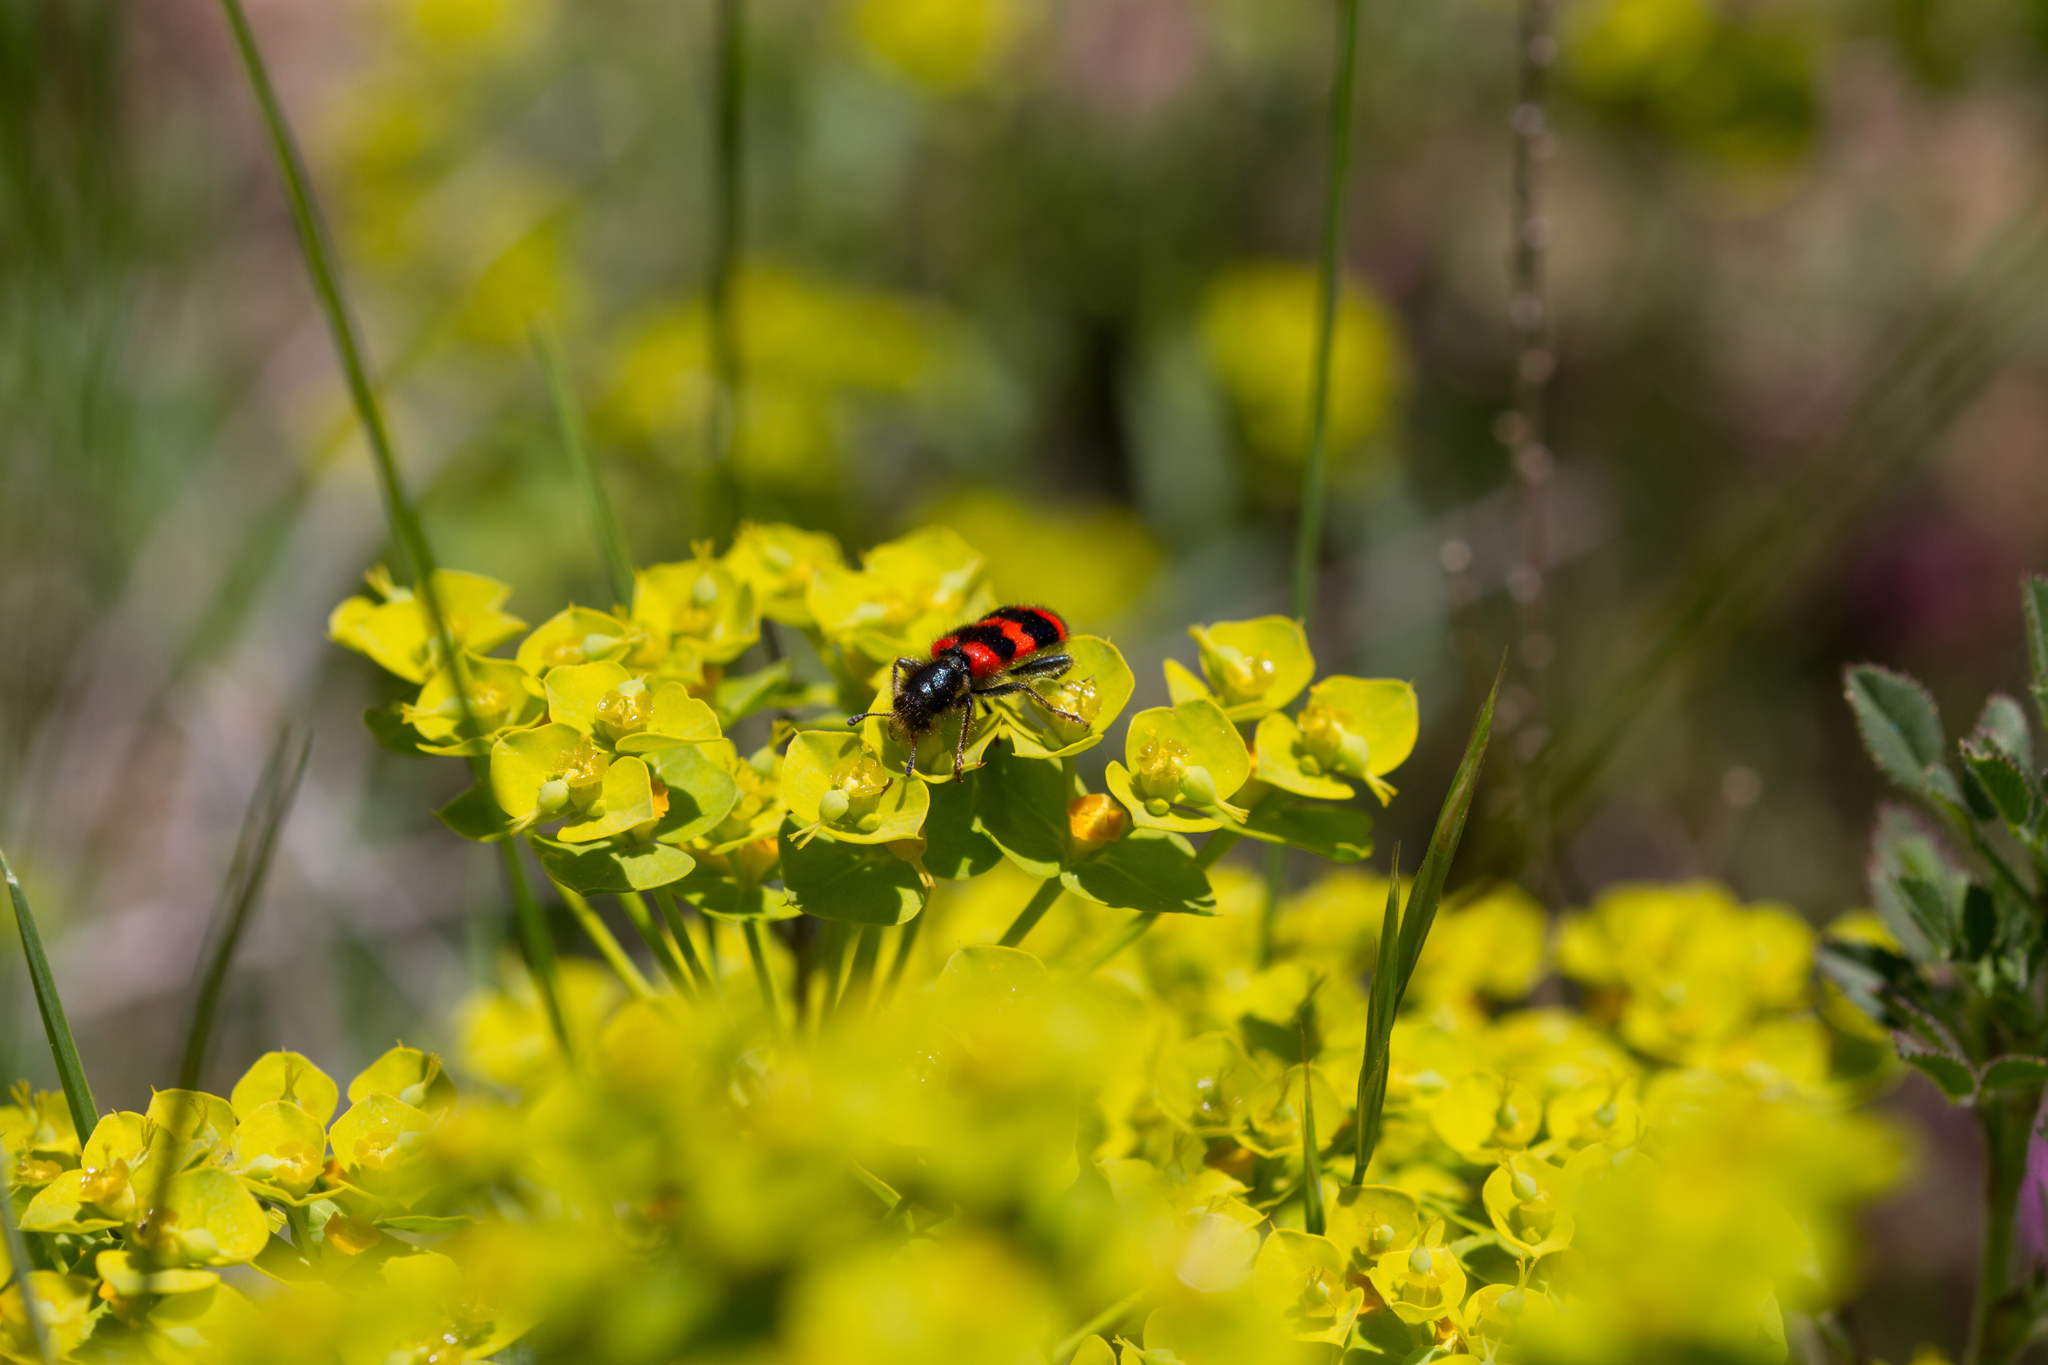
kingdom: Animalia
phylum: Arthropoda
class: Insecta
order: Coleoptera
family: Cleridae
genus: Trichodes
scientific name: Trichodes apiarius
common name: Bee-eating beetle
